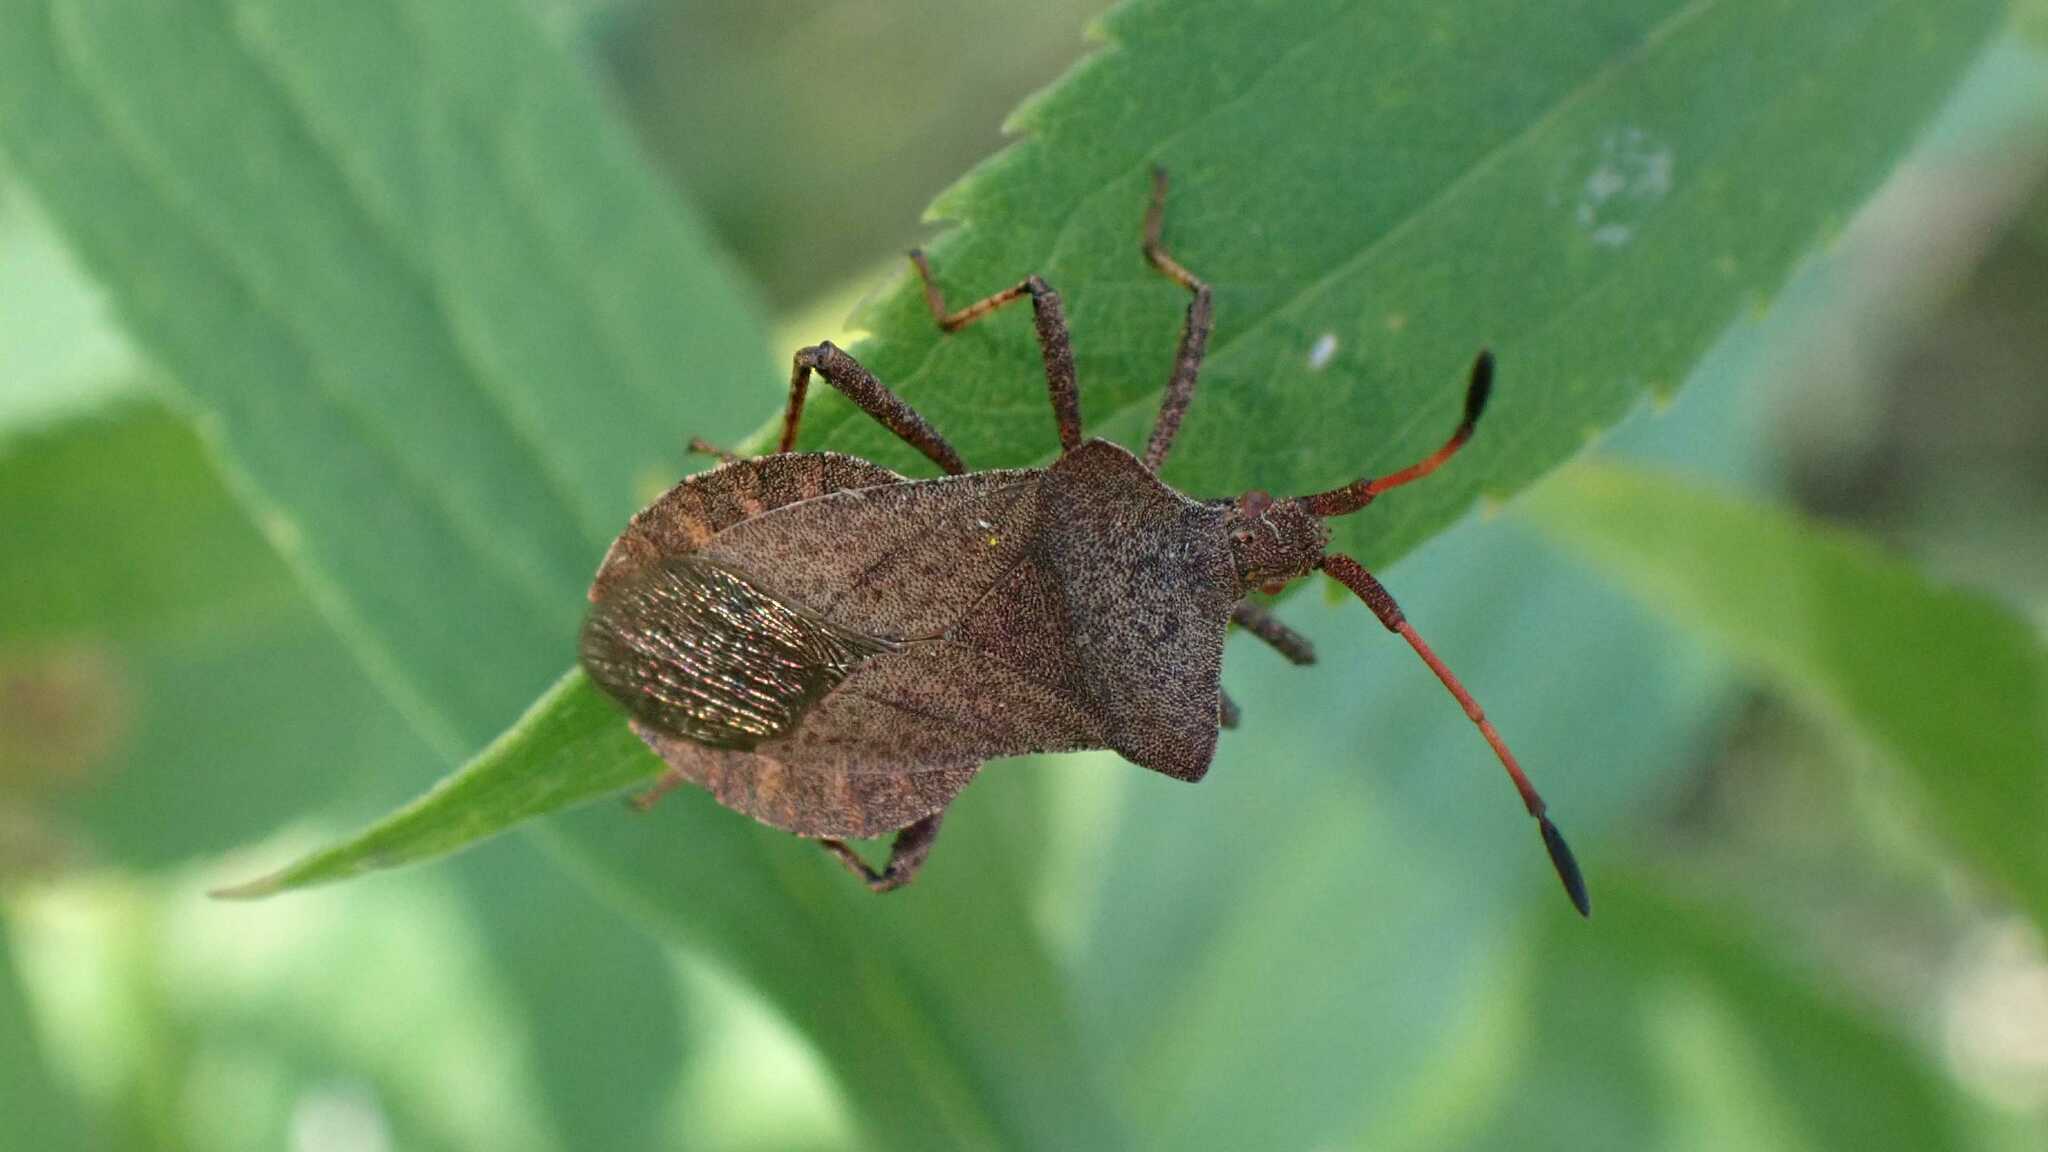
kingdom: Animalia
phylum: Arthropoda
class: Insecta
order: Hemiptera
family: Coreidae
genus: Coreus
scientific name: Coreus marginatus
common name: Dock bug
